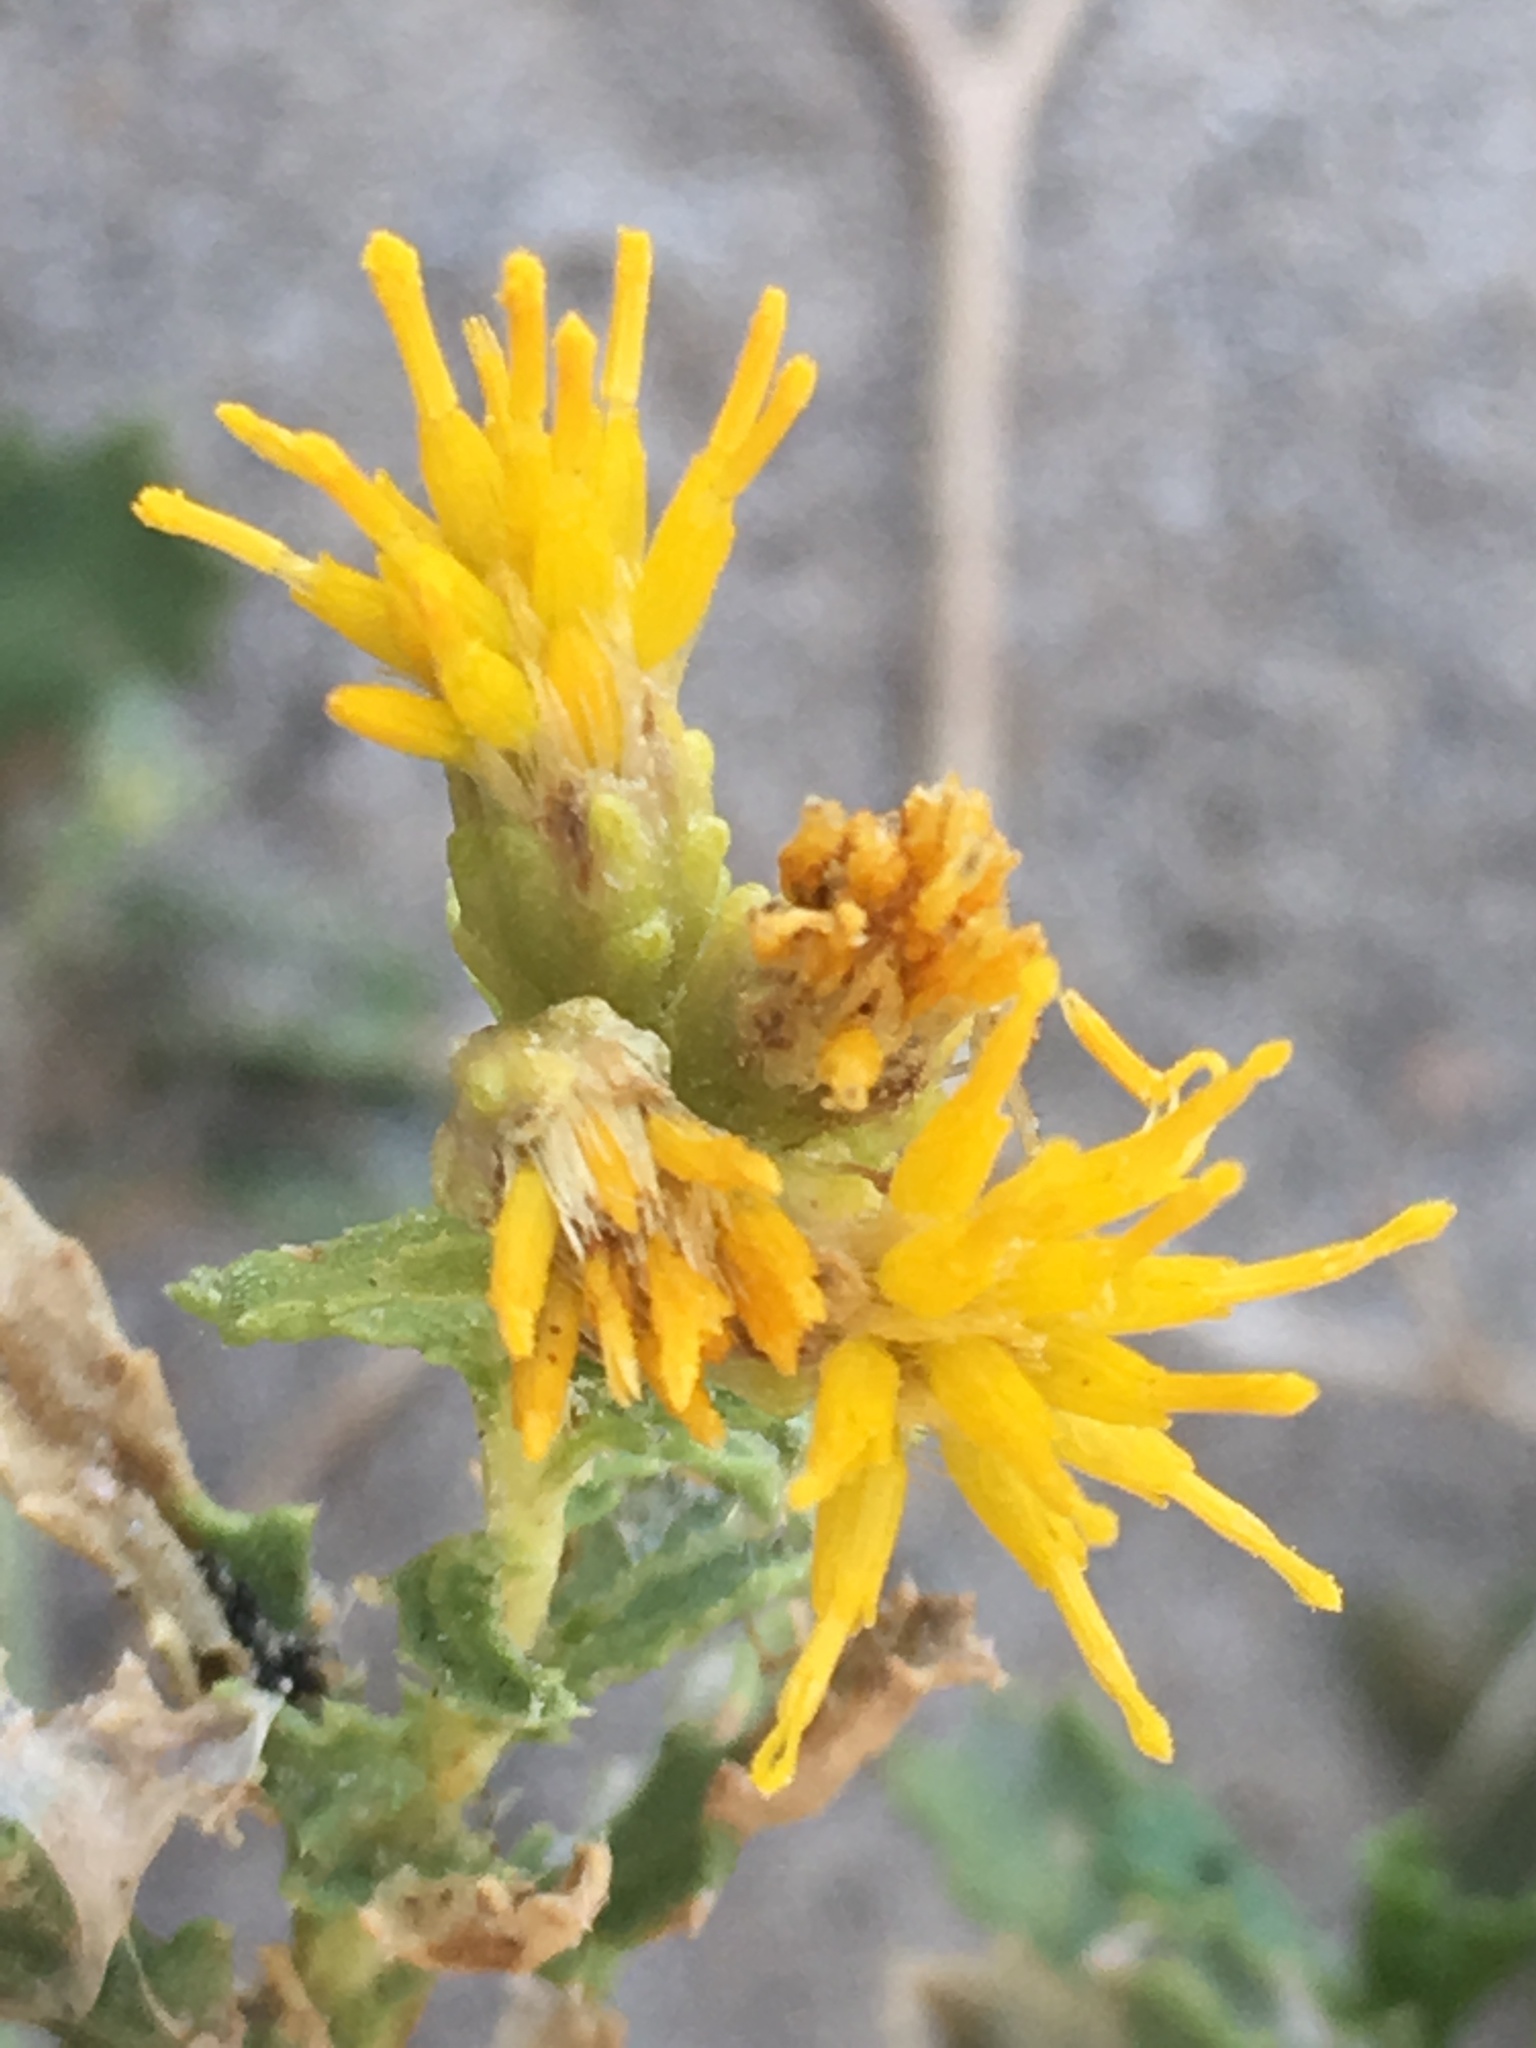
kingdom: Plantae
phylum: Tracheophyta
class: Magnoliopsida
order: Asterales
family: Asteraceae
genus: Isocoma
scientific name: Isocoma acradenia
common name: Alkali jimmyweed
